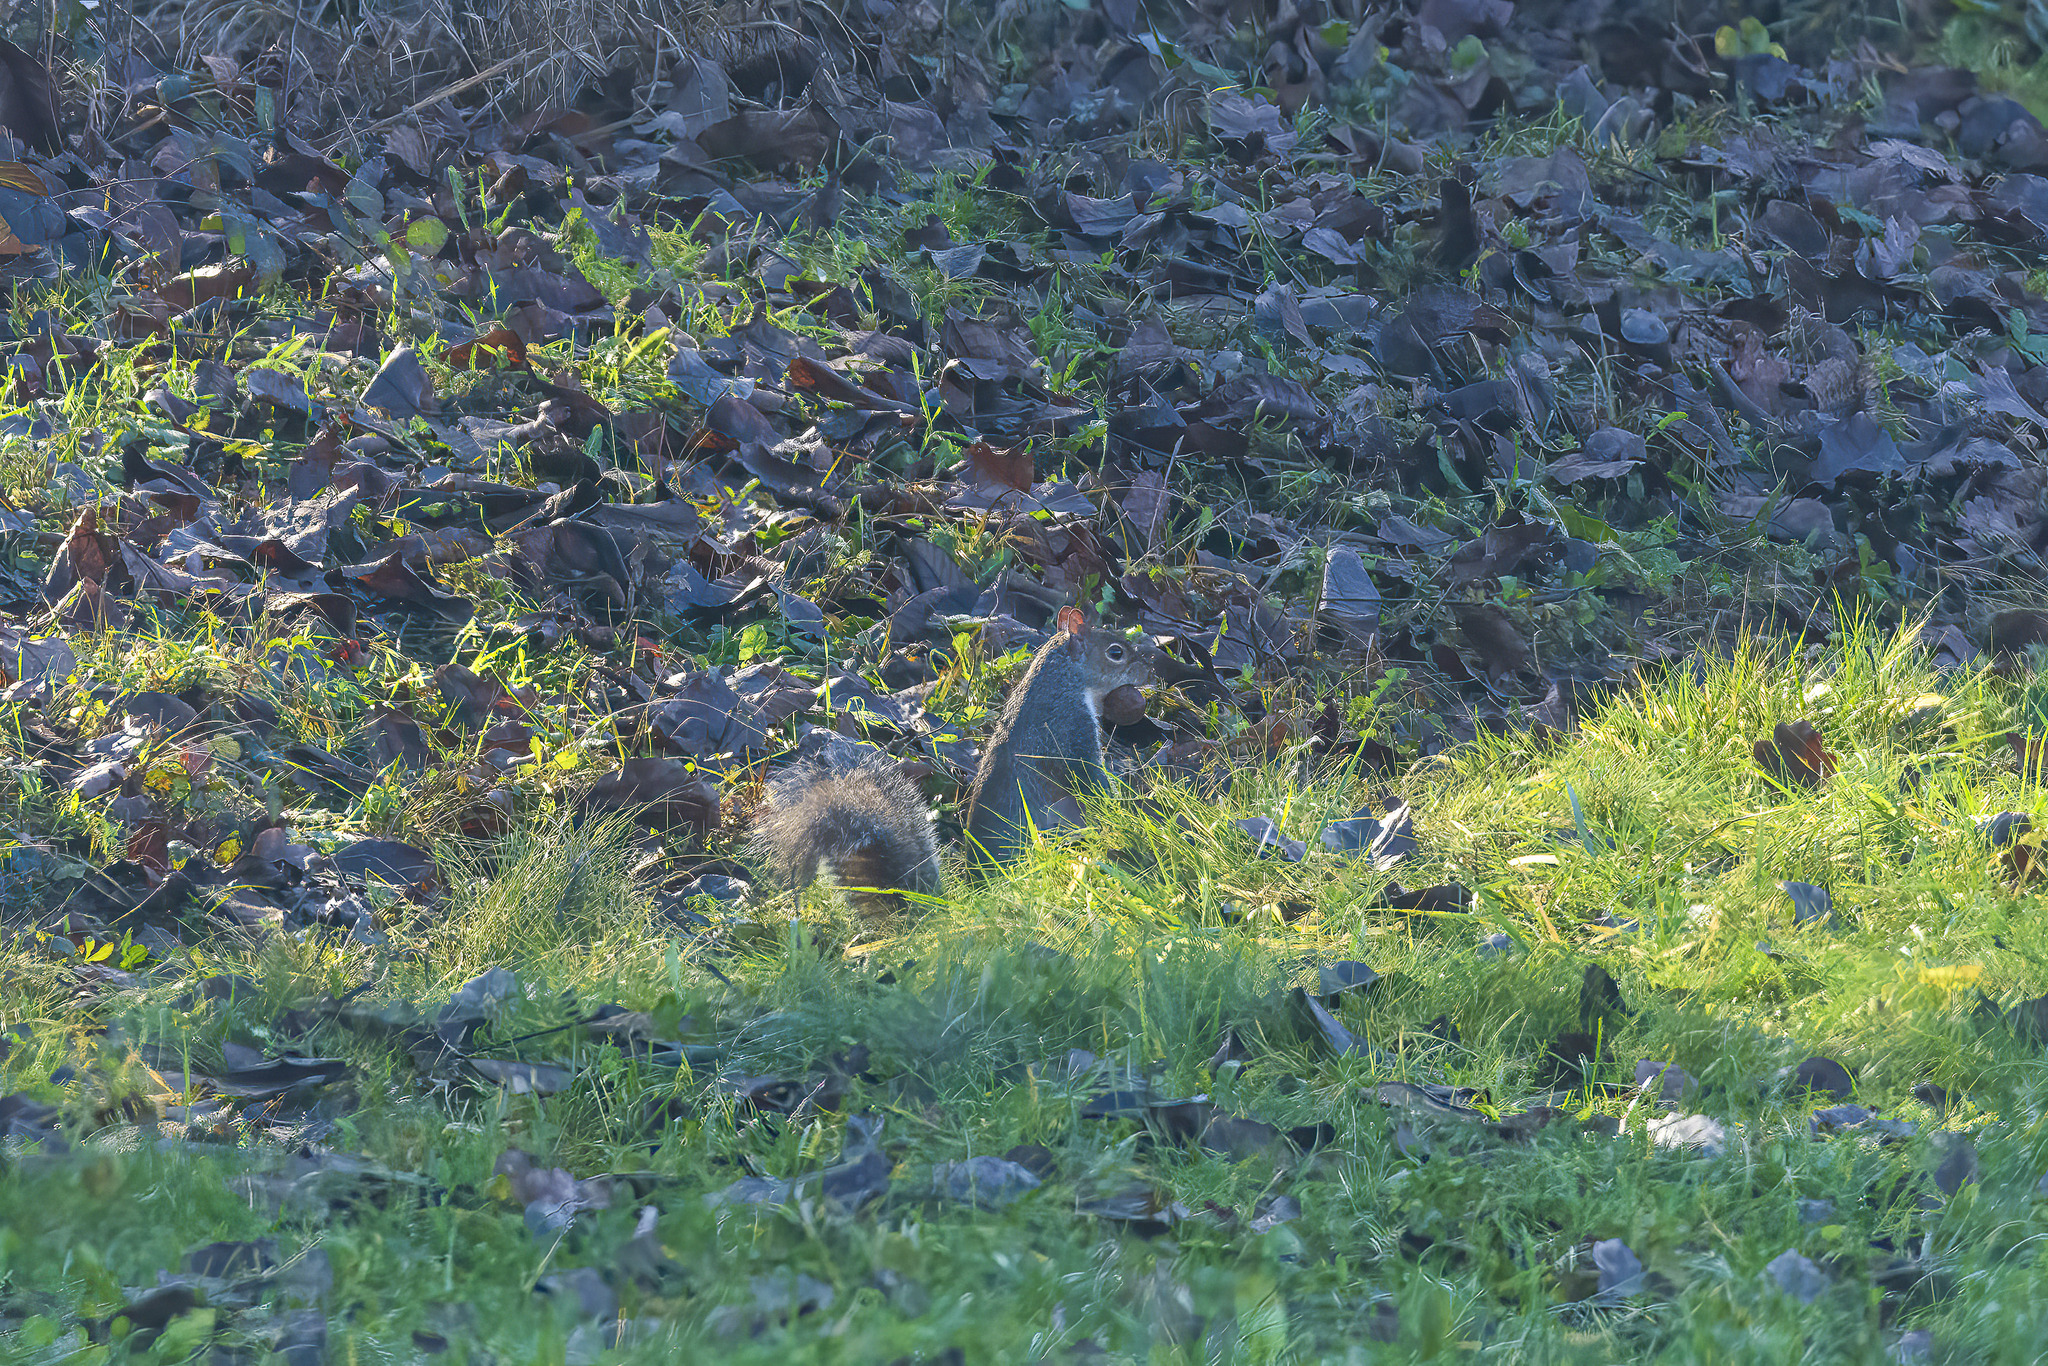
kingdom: Animalia
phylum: Chordata
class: Mammalia
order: Rodentia
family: Sciuridae
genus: Sciurus
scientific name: Sciurus carolinensis
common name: Eastern gray squirrel
